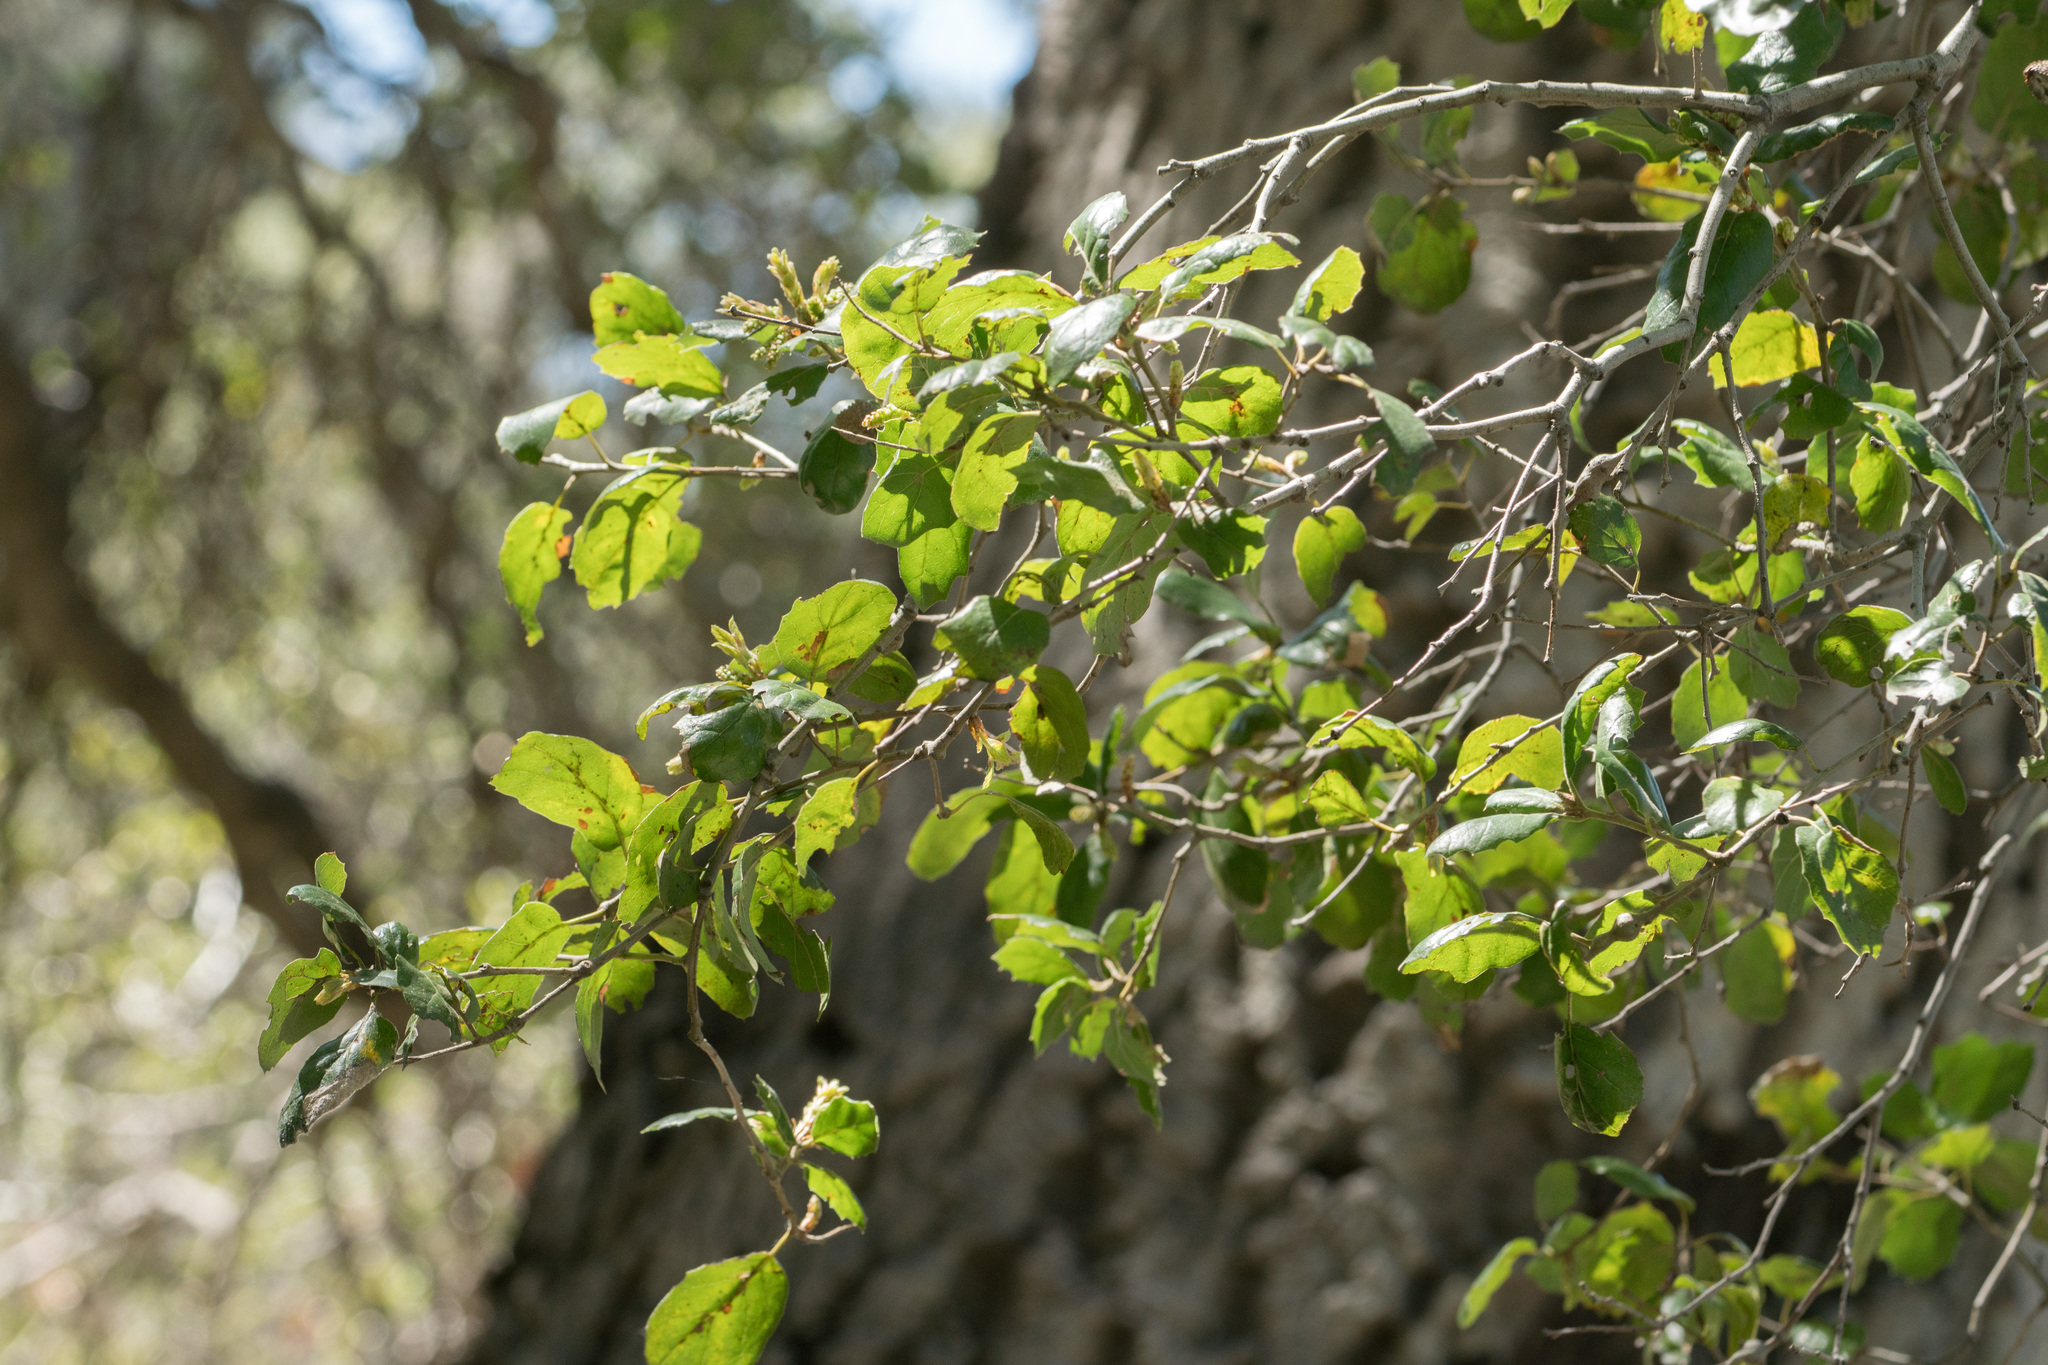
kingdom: Plantae
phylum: Tracheophyta
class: Magnoliopsida
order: Fagales
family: Fagaceae
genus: Quercus
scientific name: Quercus agrifolia
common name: California live oak
